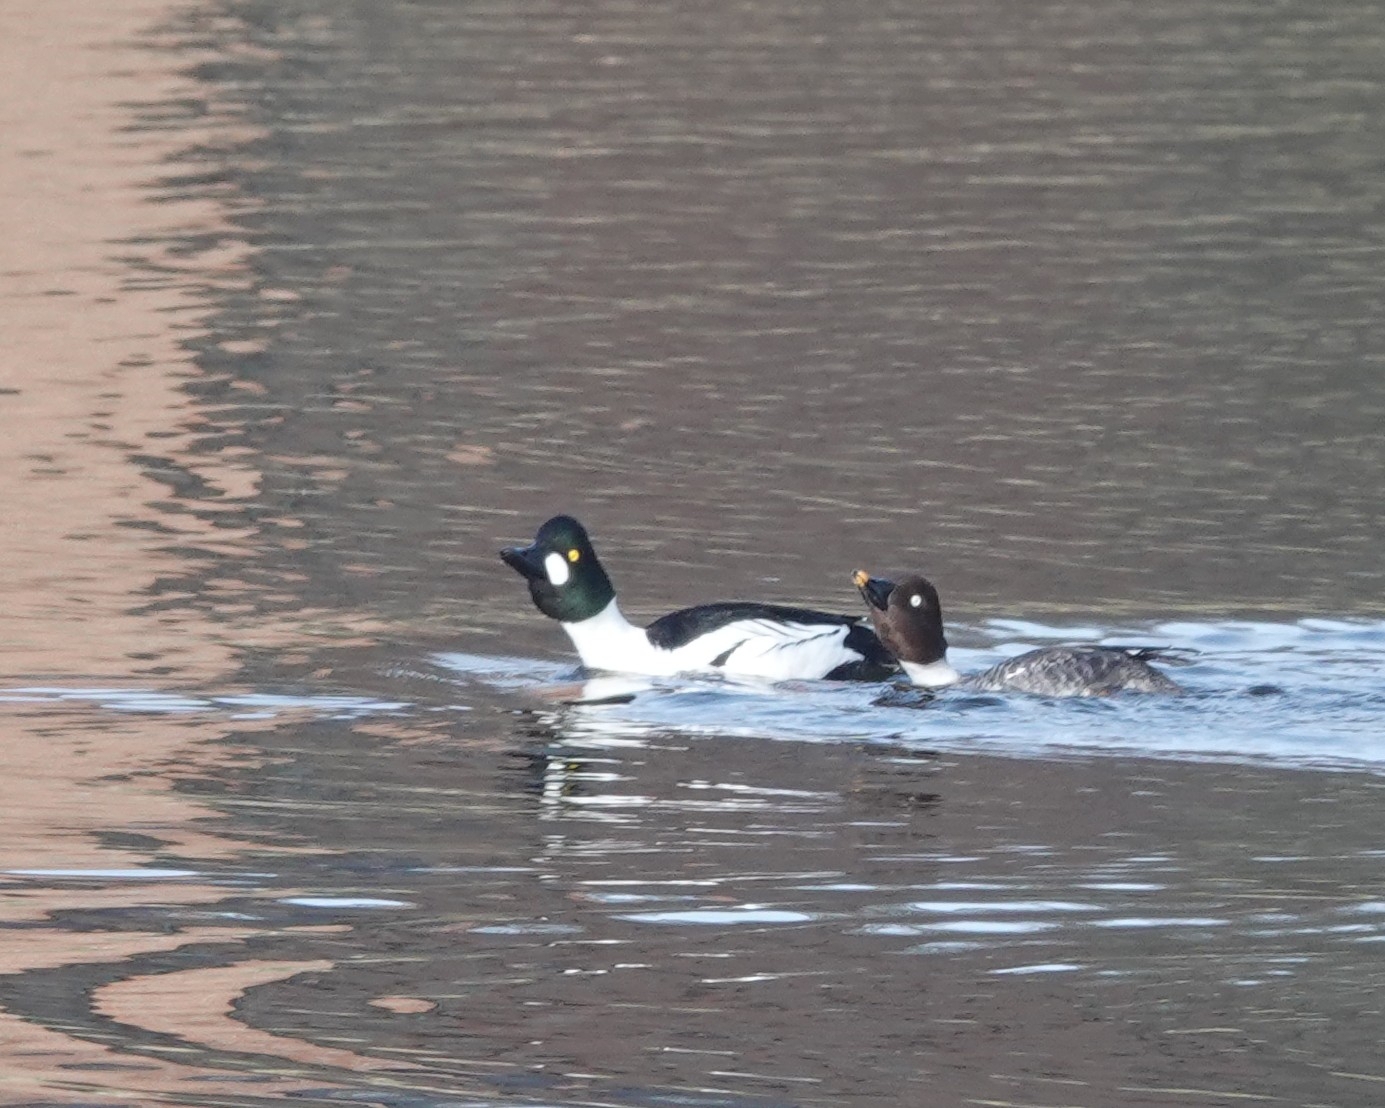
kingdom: Animalia
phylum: Chordata
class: Aves
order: Anseriformes
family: Anatidae
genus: Bucephala
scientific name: Bucephala clangula
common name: Common goldeneye
